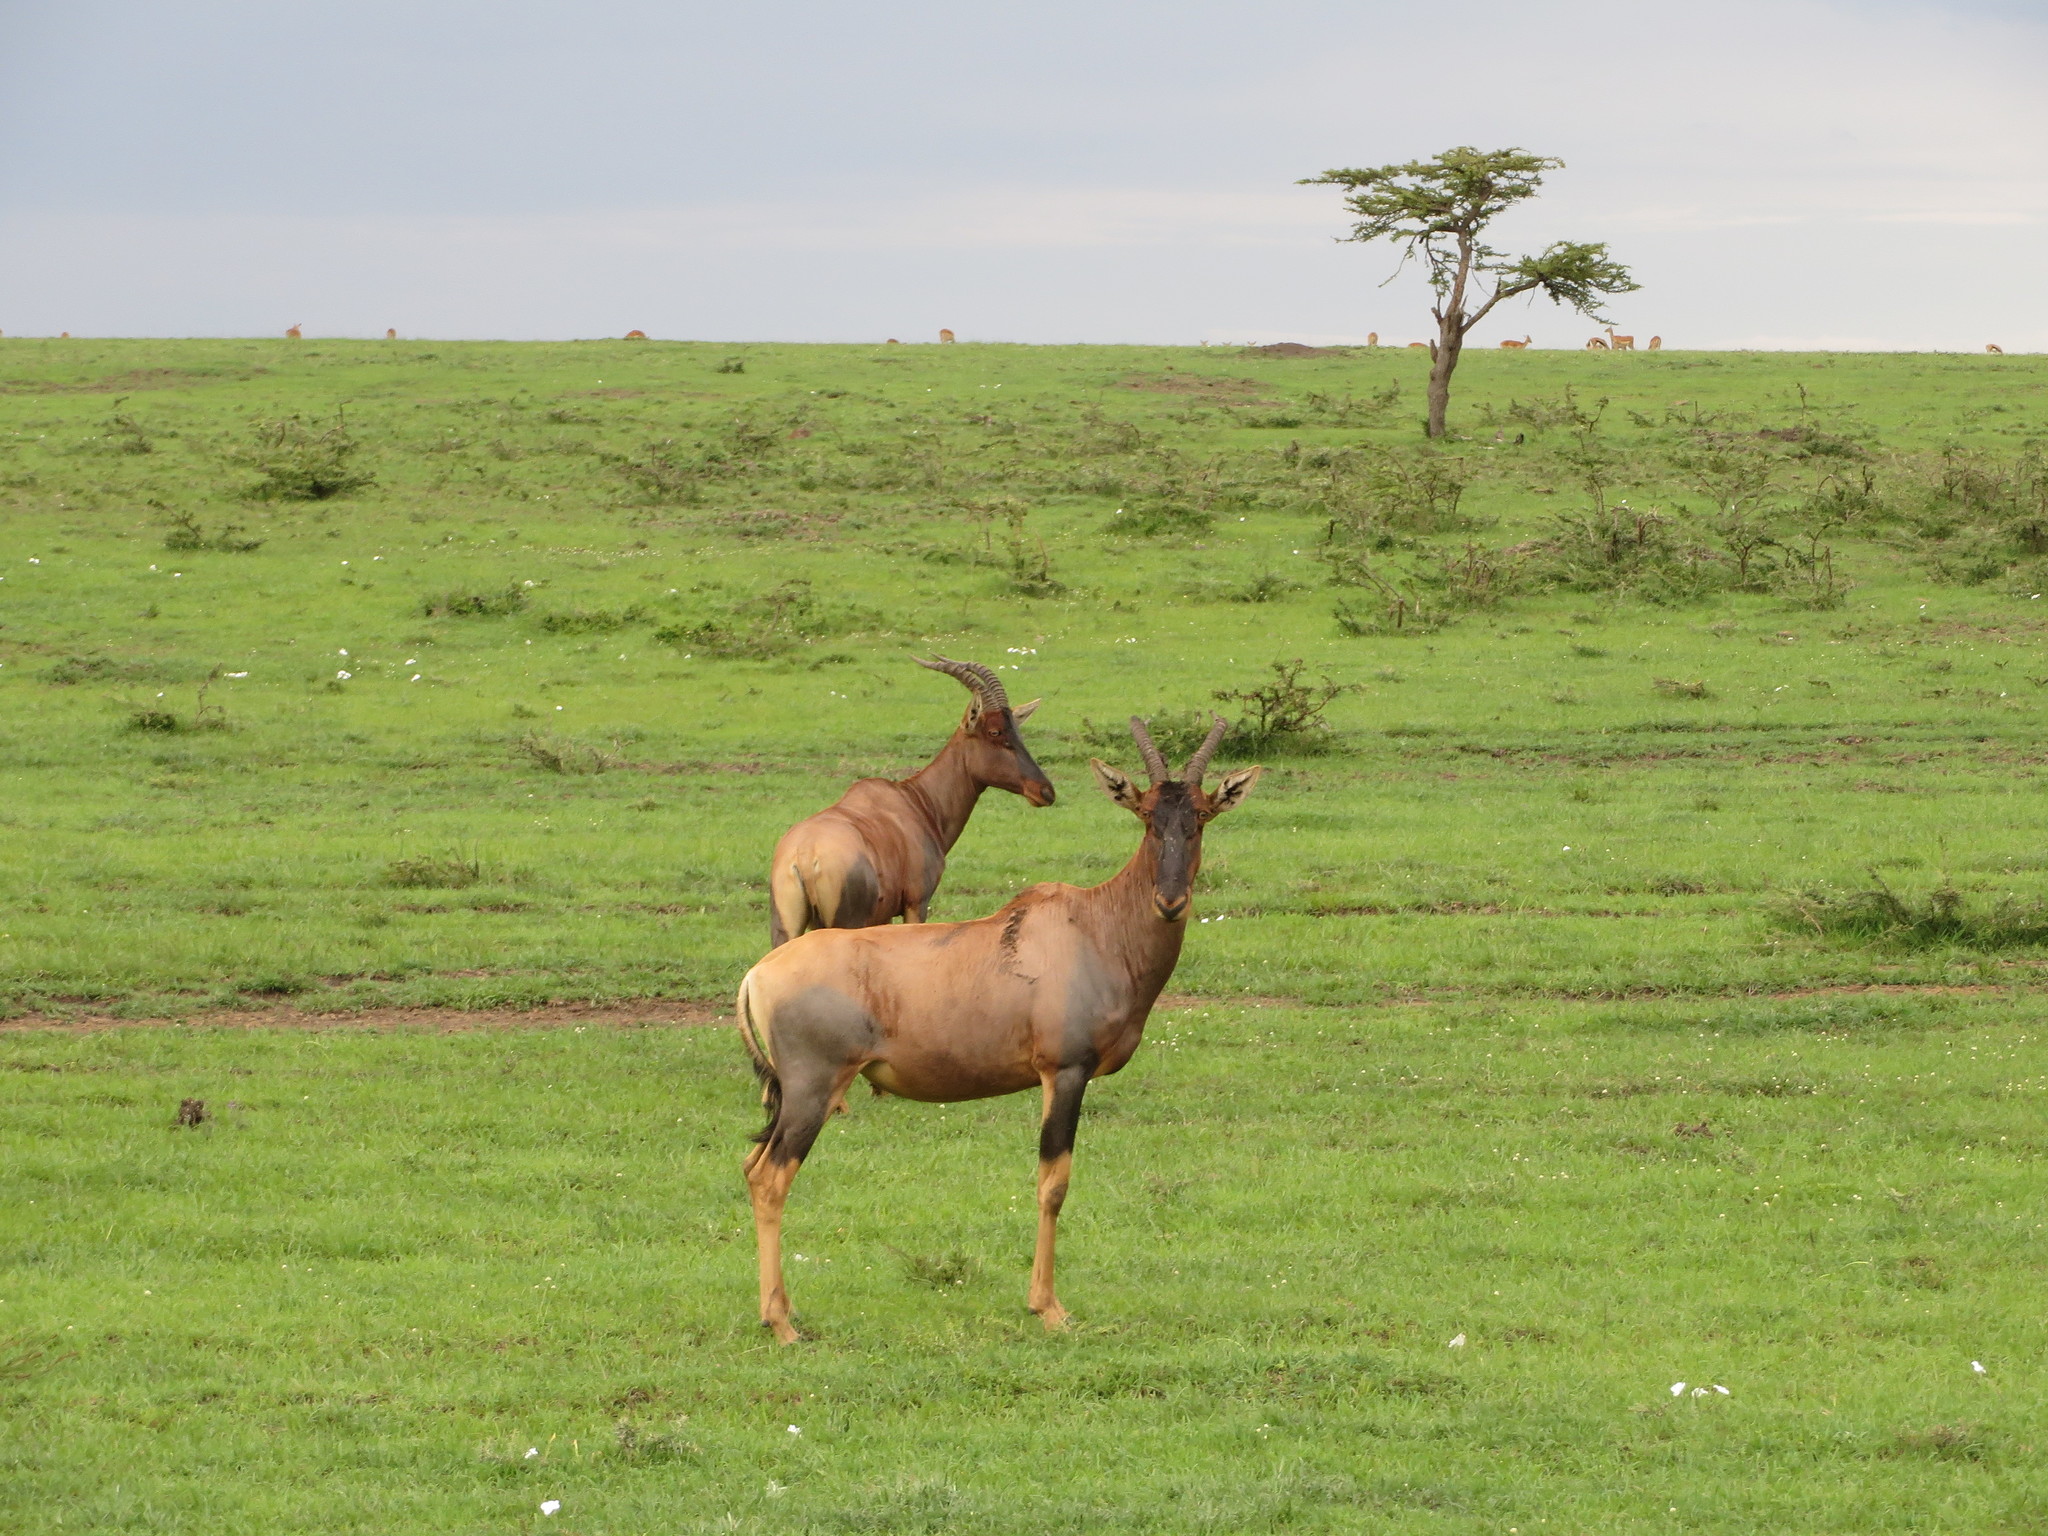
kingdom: Animalia
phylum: Chordata
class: Mammalia
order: Artiodactyla
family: Bovidae
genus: Damaliscus
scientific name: Damaliscus korrigum
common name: Topi
